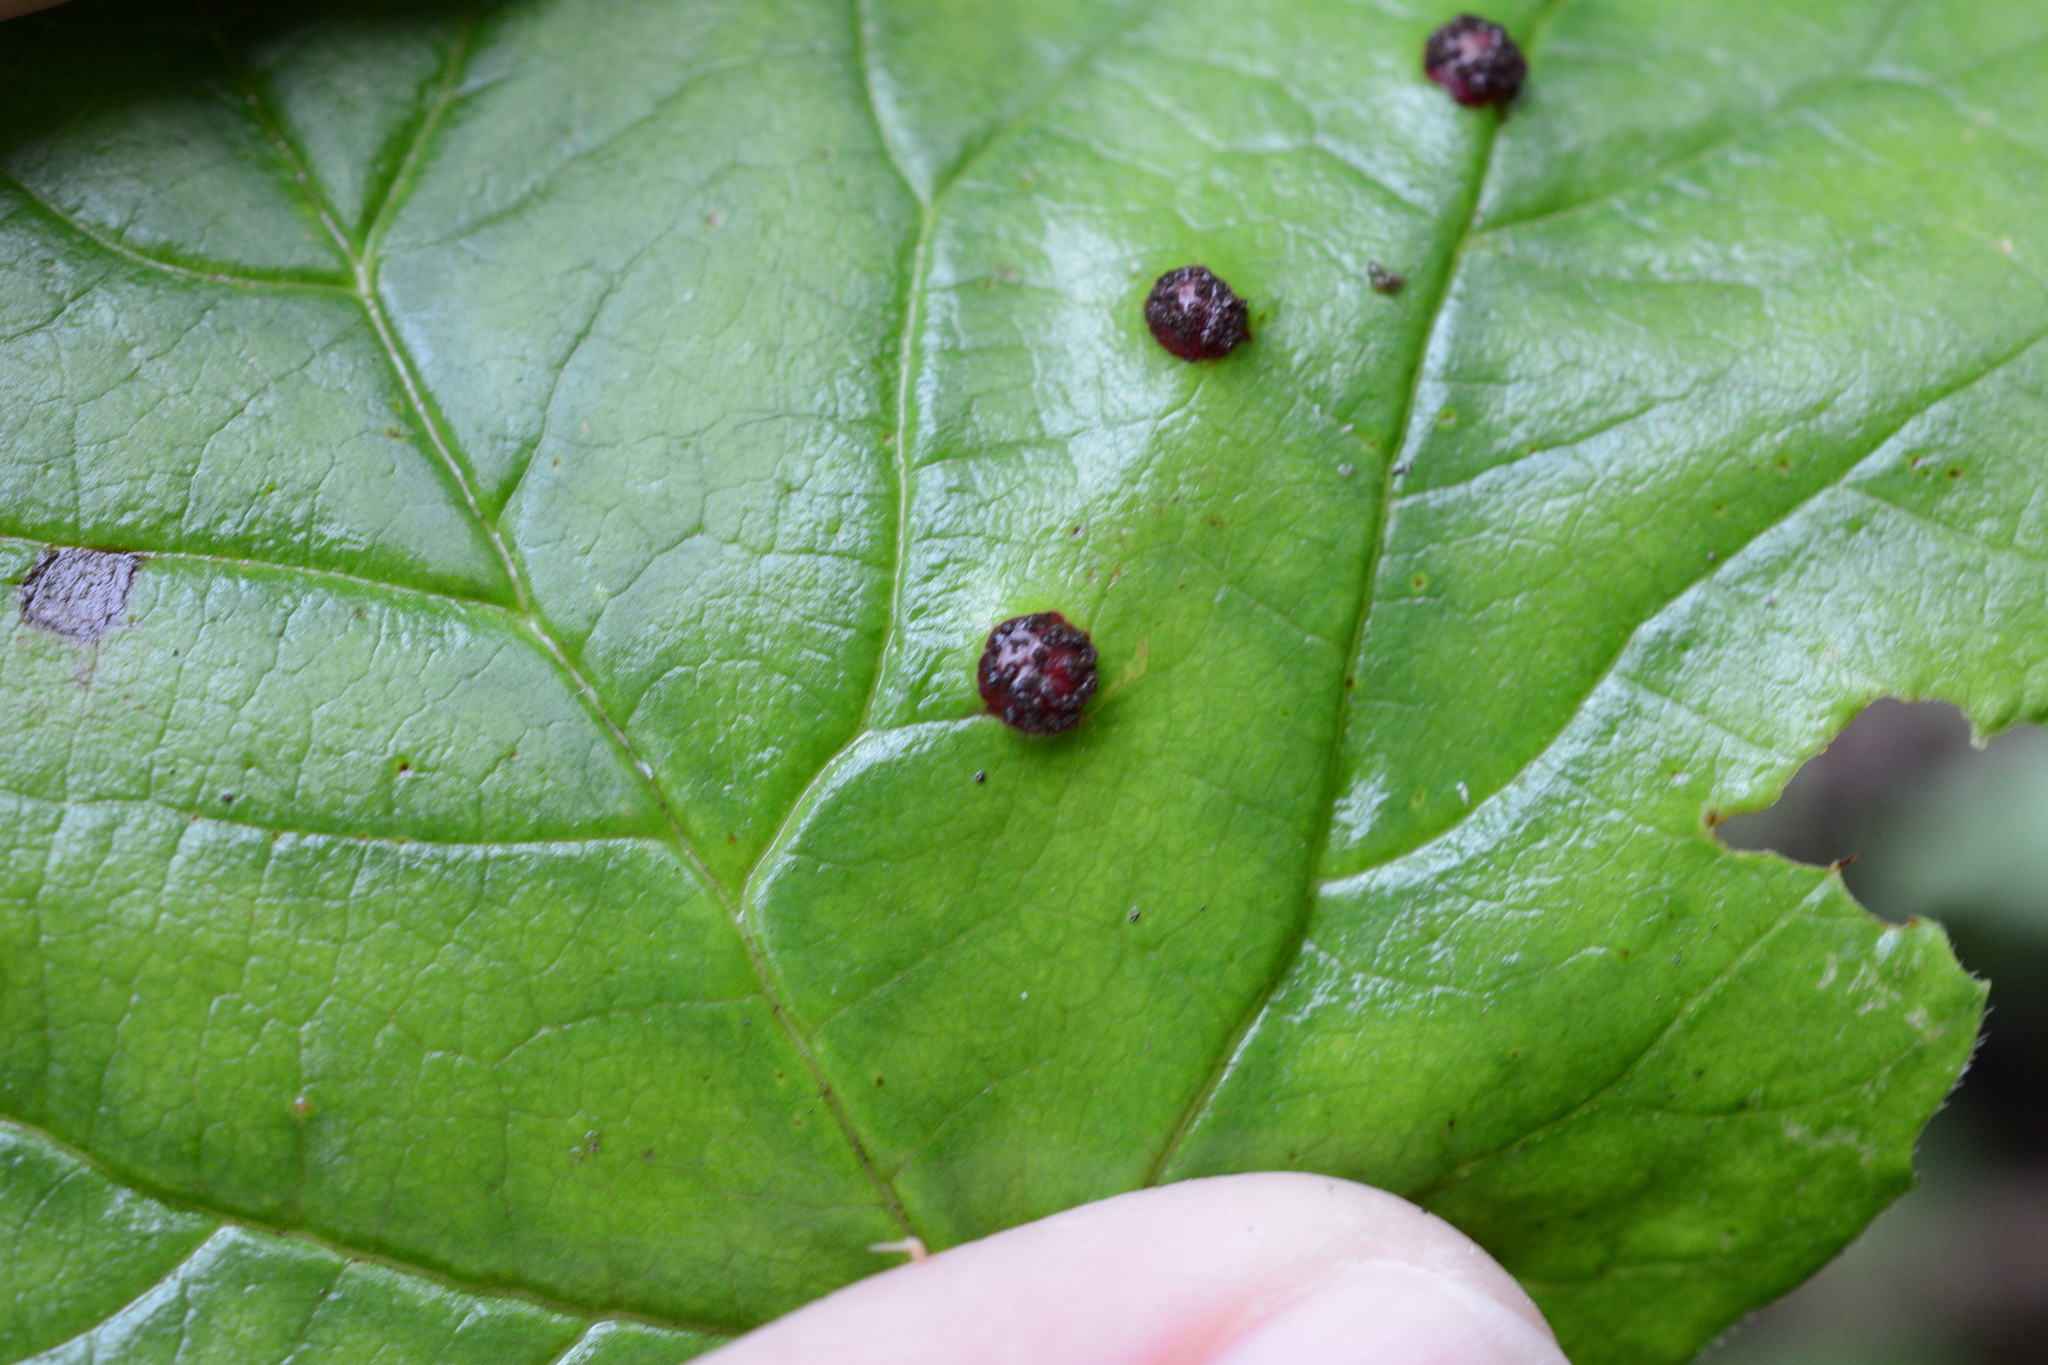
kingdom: Fungi
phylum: Basidiomycota
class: Pucciniomycetes
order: Pucciniales
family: Pucciniaceae
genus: Puccinia
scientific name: Puccinia linkii
